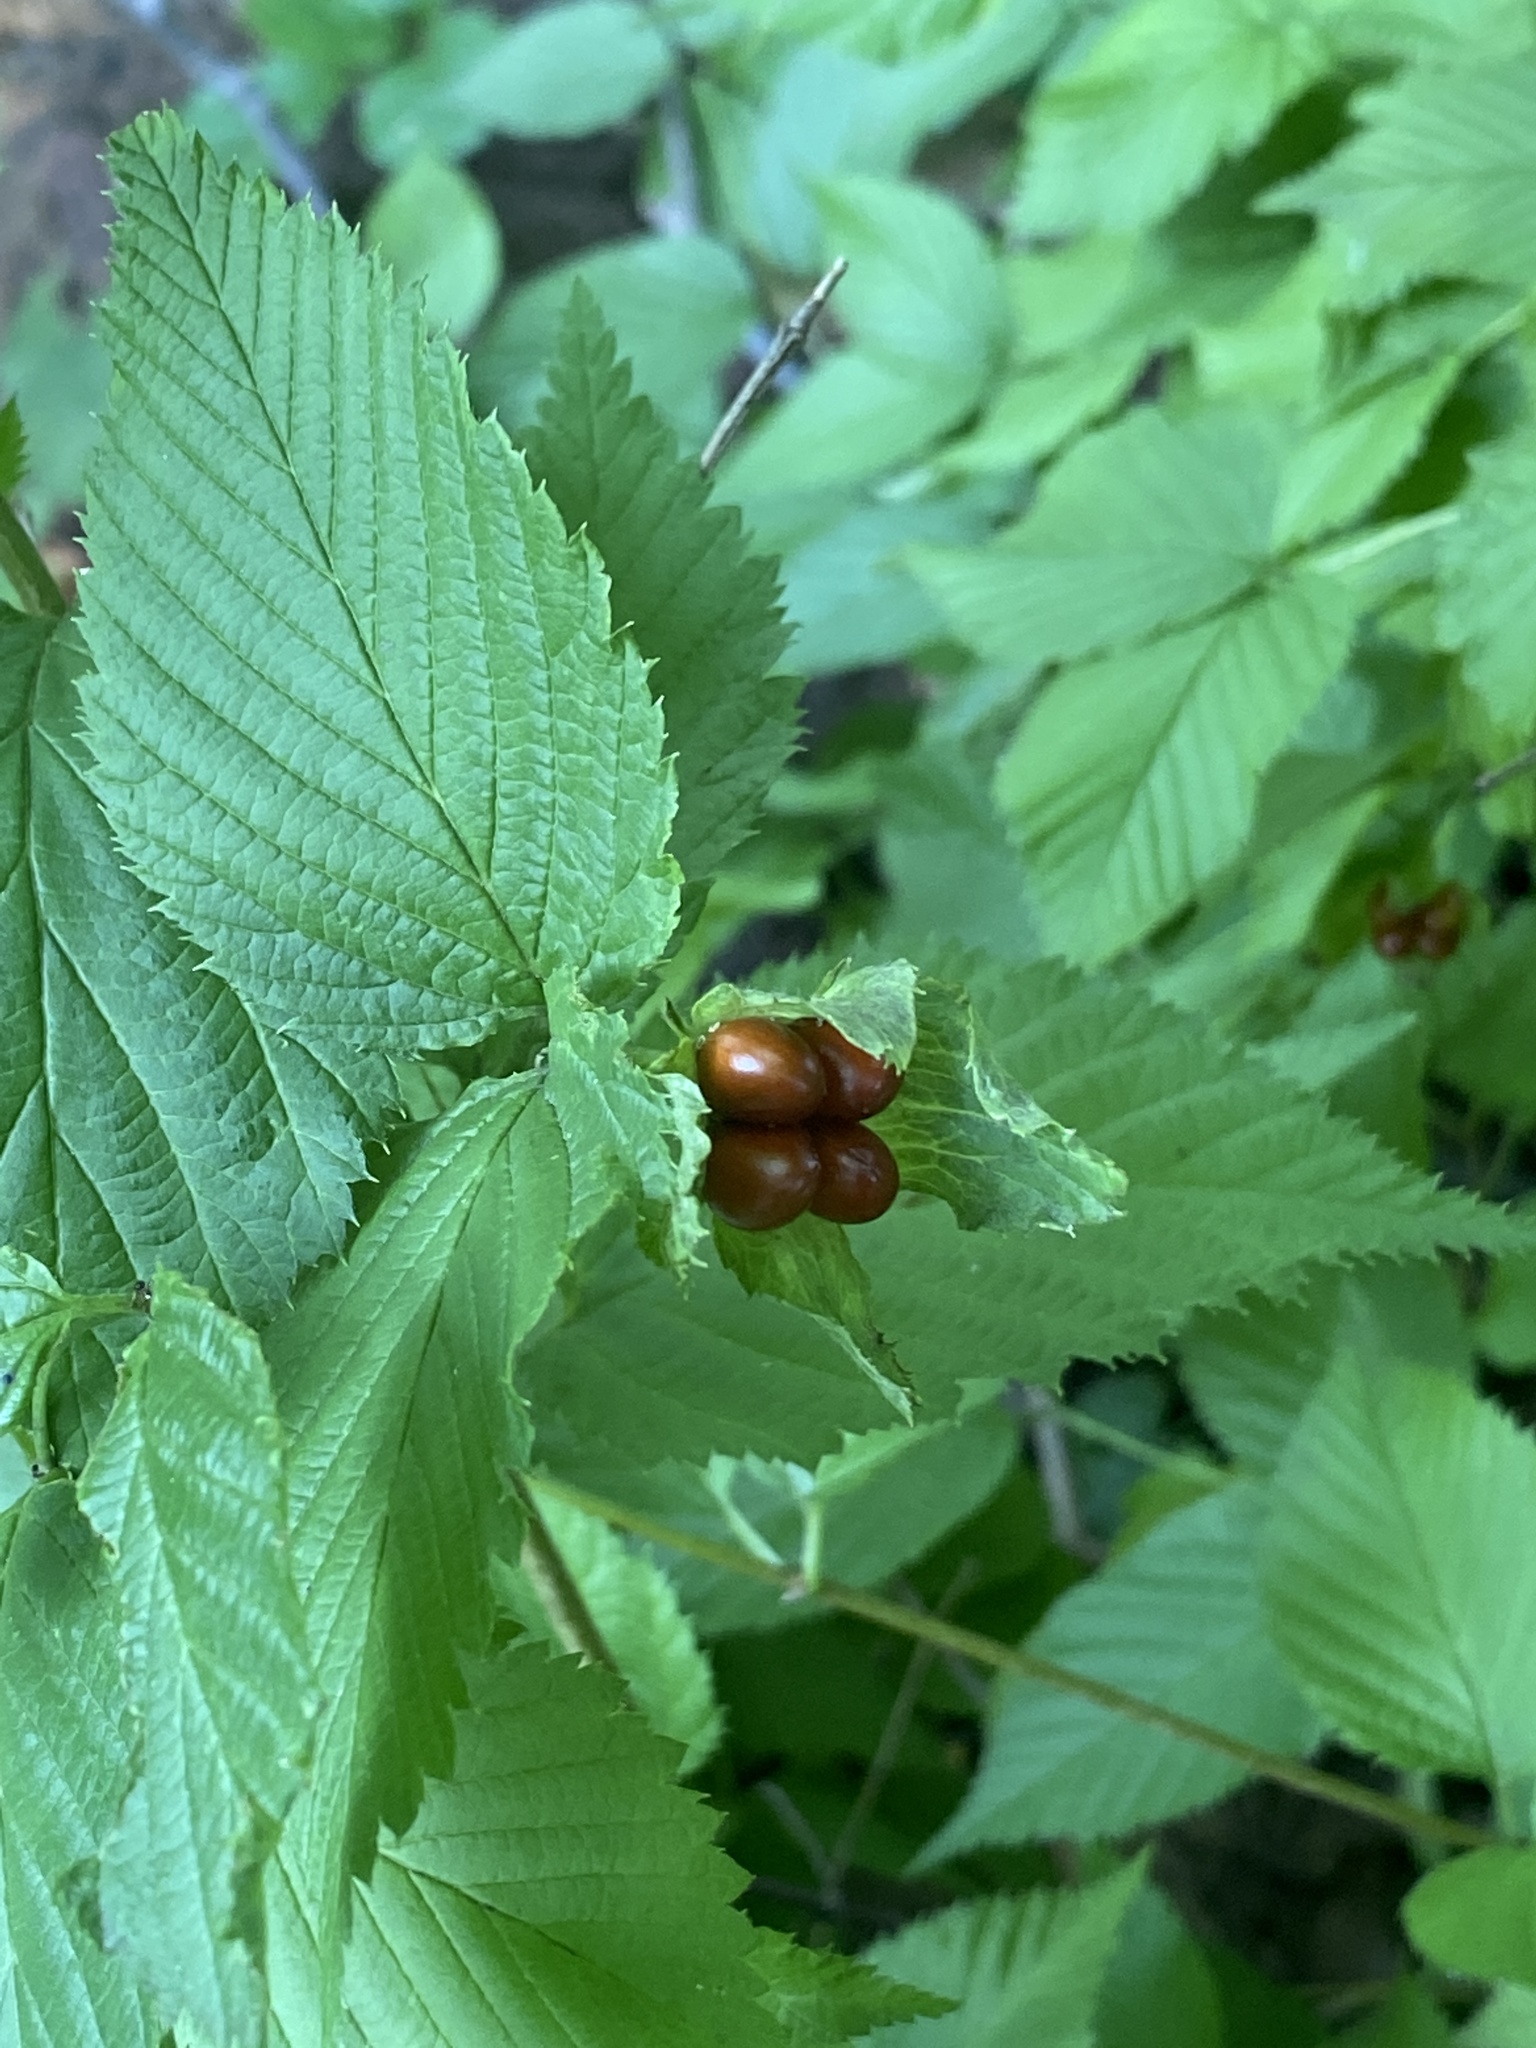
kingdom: Plantae
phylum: Tracheophyta
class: Magnoliopsida
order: Rosales
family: Rosaceae
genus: Rhodotypos
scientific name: Rhodotypos scandens
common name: Jetbead
